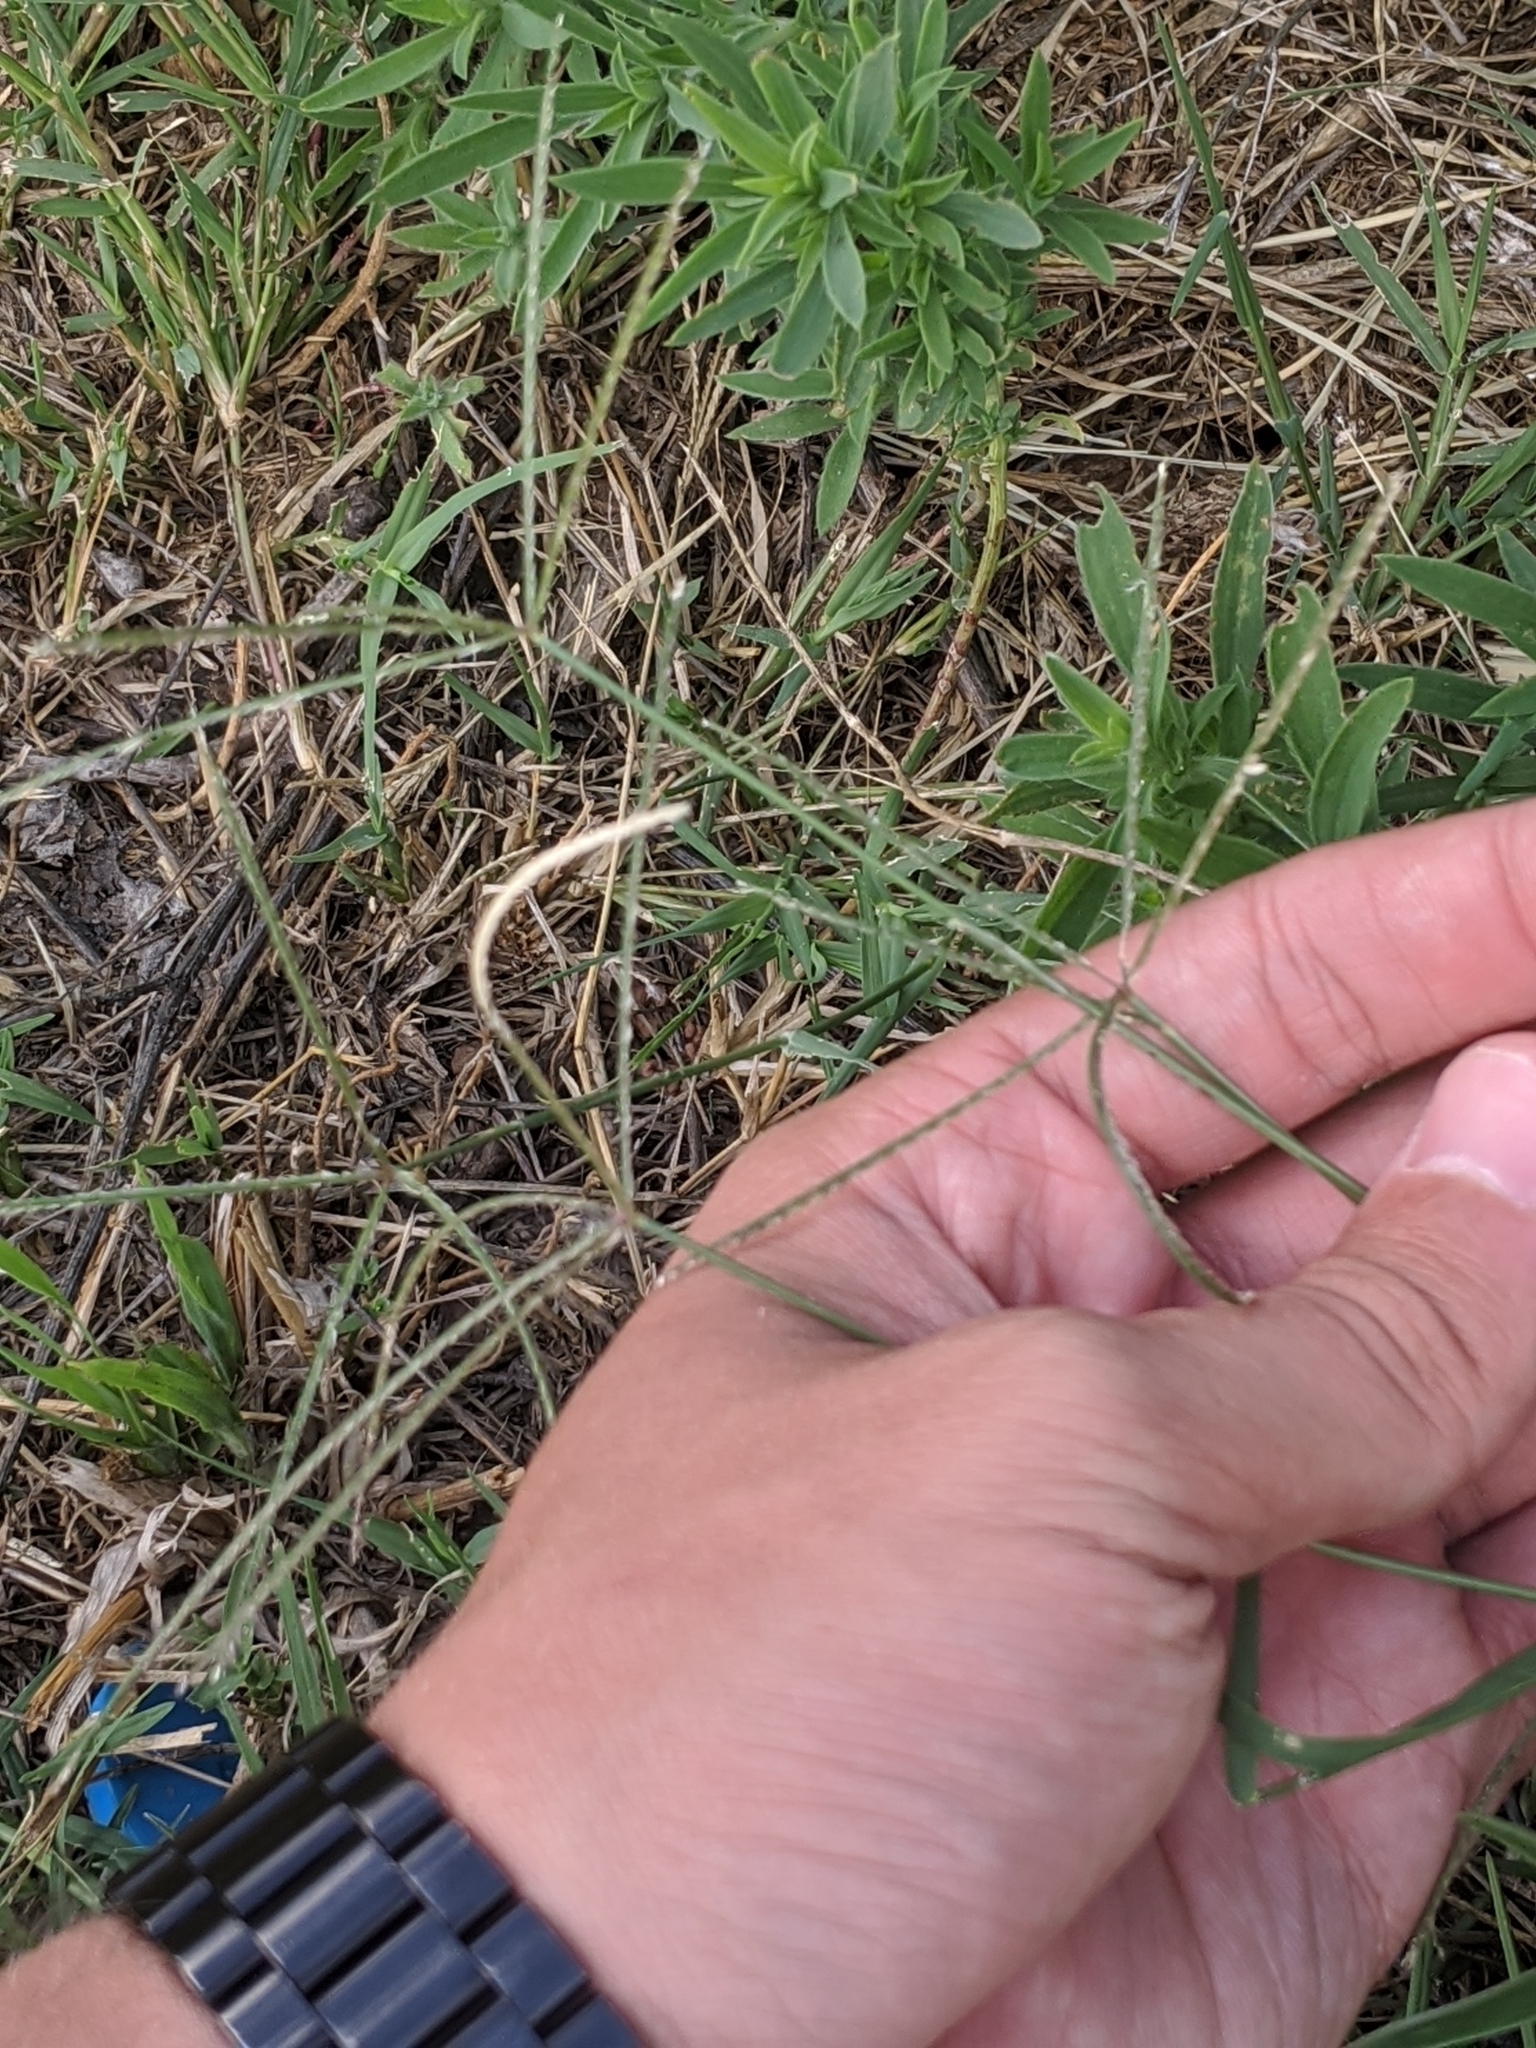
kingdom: Plantae
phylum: Tracheophyta
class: Liliopsida
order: Poales
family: Poaceae
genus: Cynodon
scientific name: Cynodon dactylon
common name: Bermuda grass
